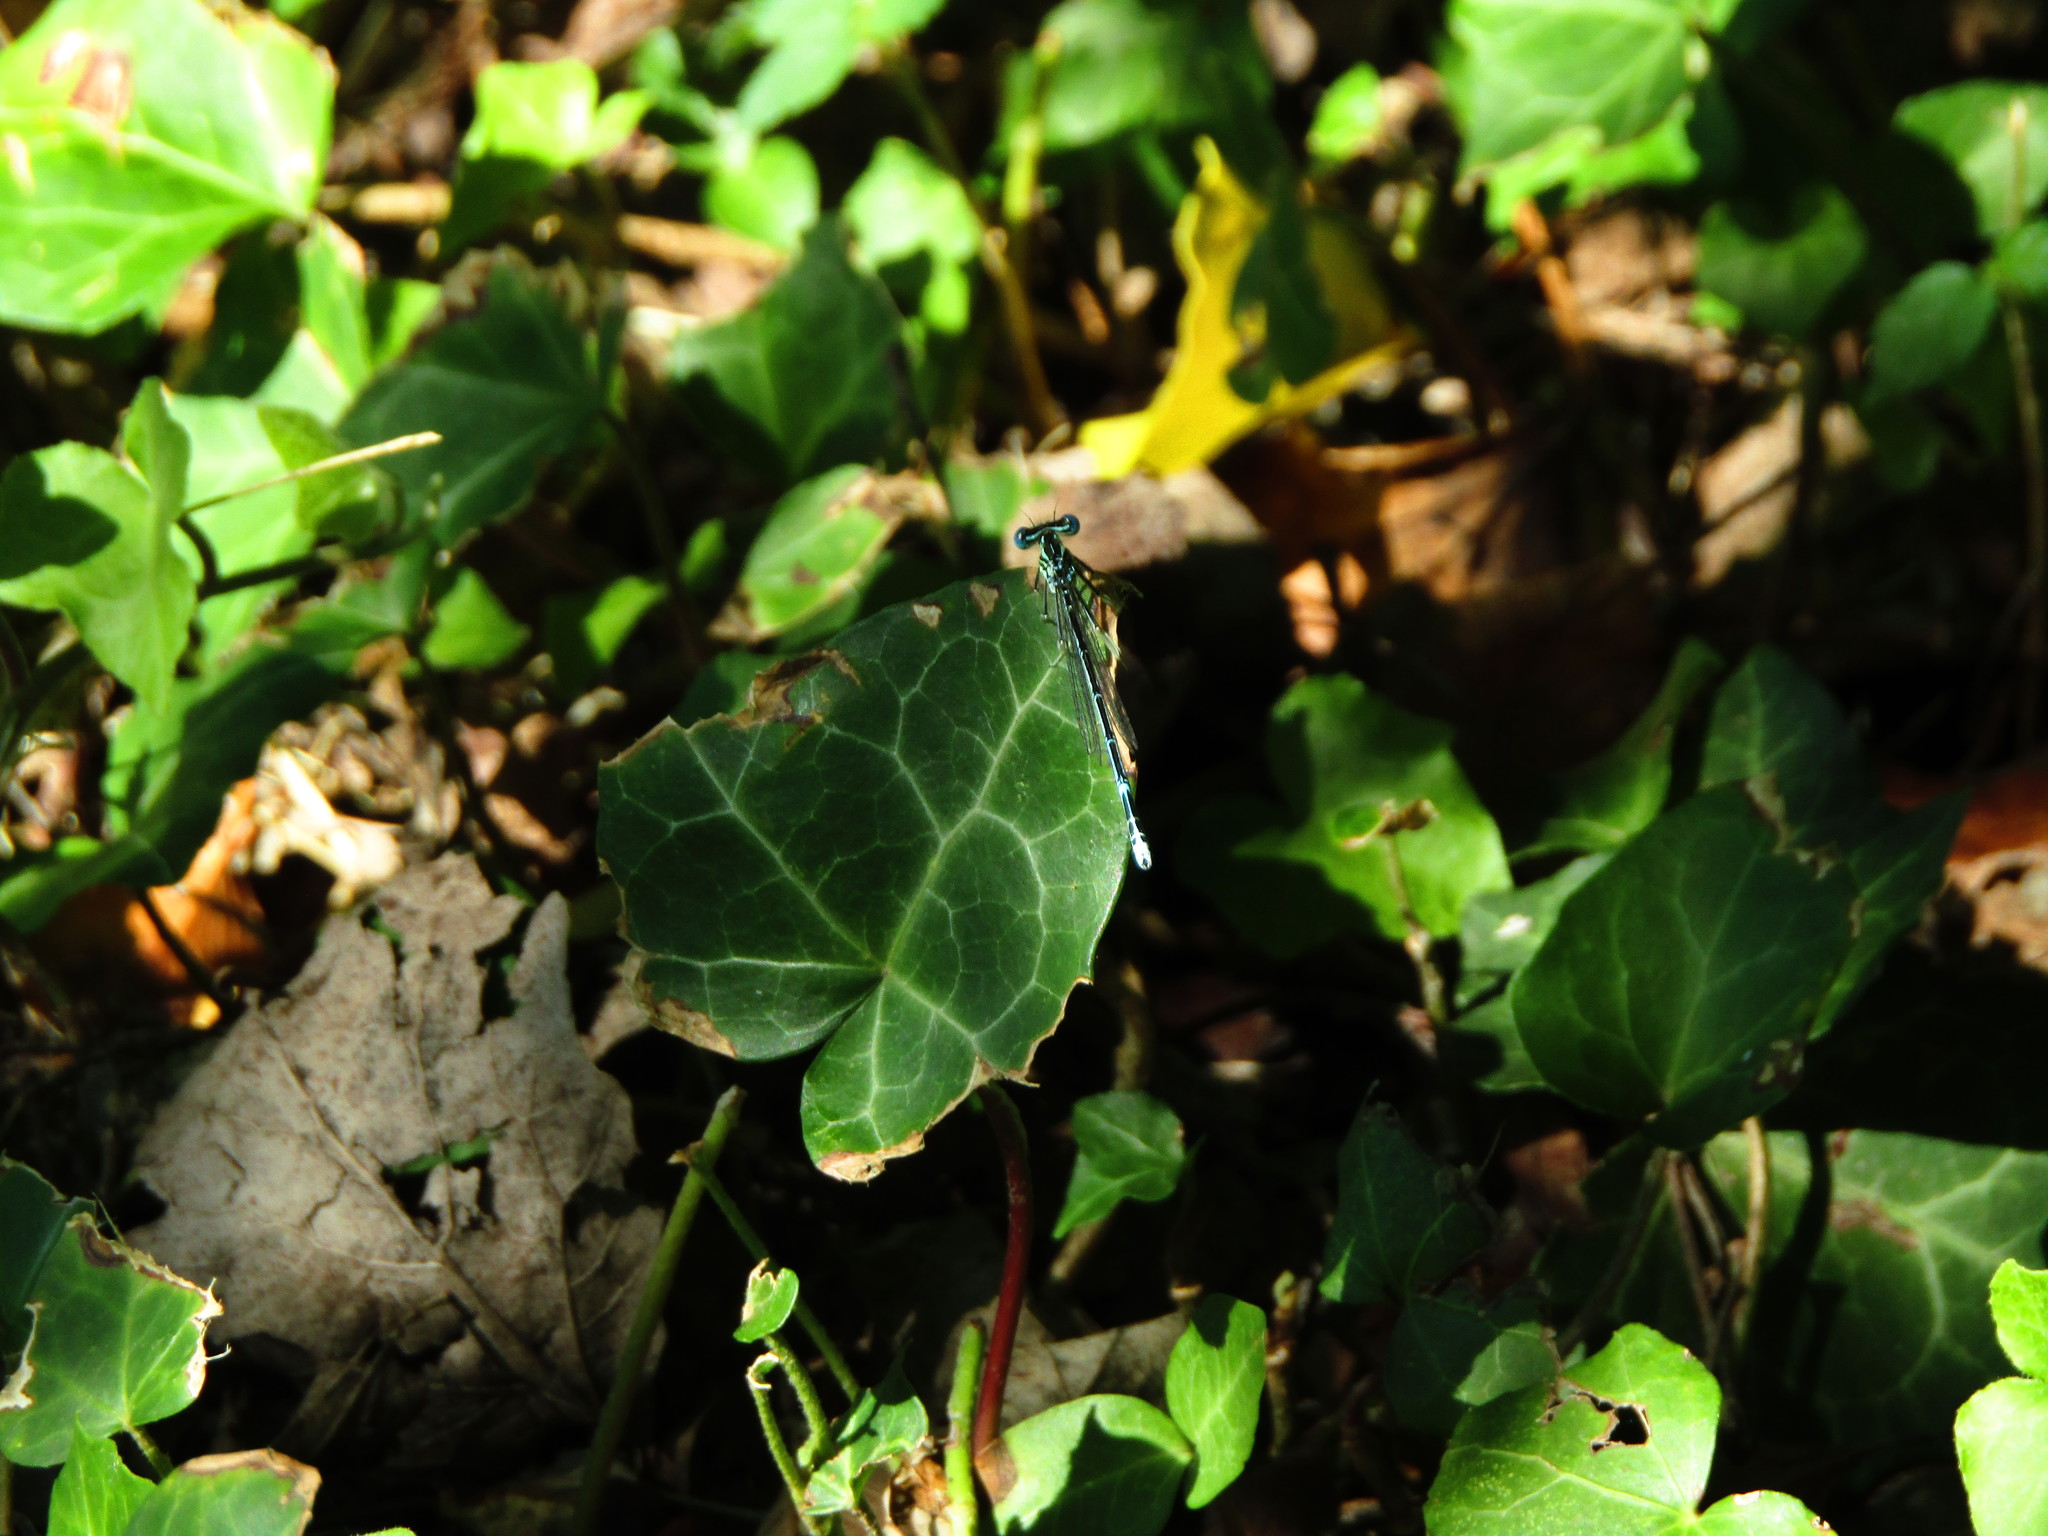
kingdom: Animalia
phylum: Arthropoda
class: Insecta
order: Odonata
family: Platycnemididae
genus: Platycnemis
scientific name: Platycnemis pennipes
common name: White-legged damselfly
